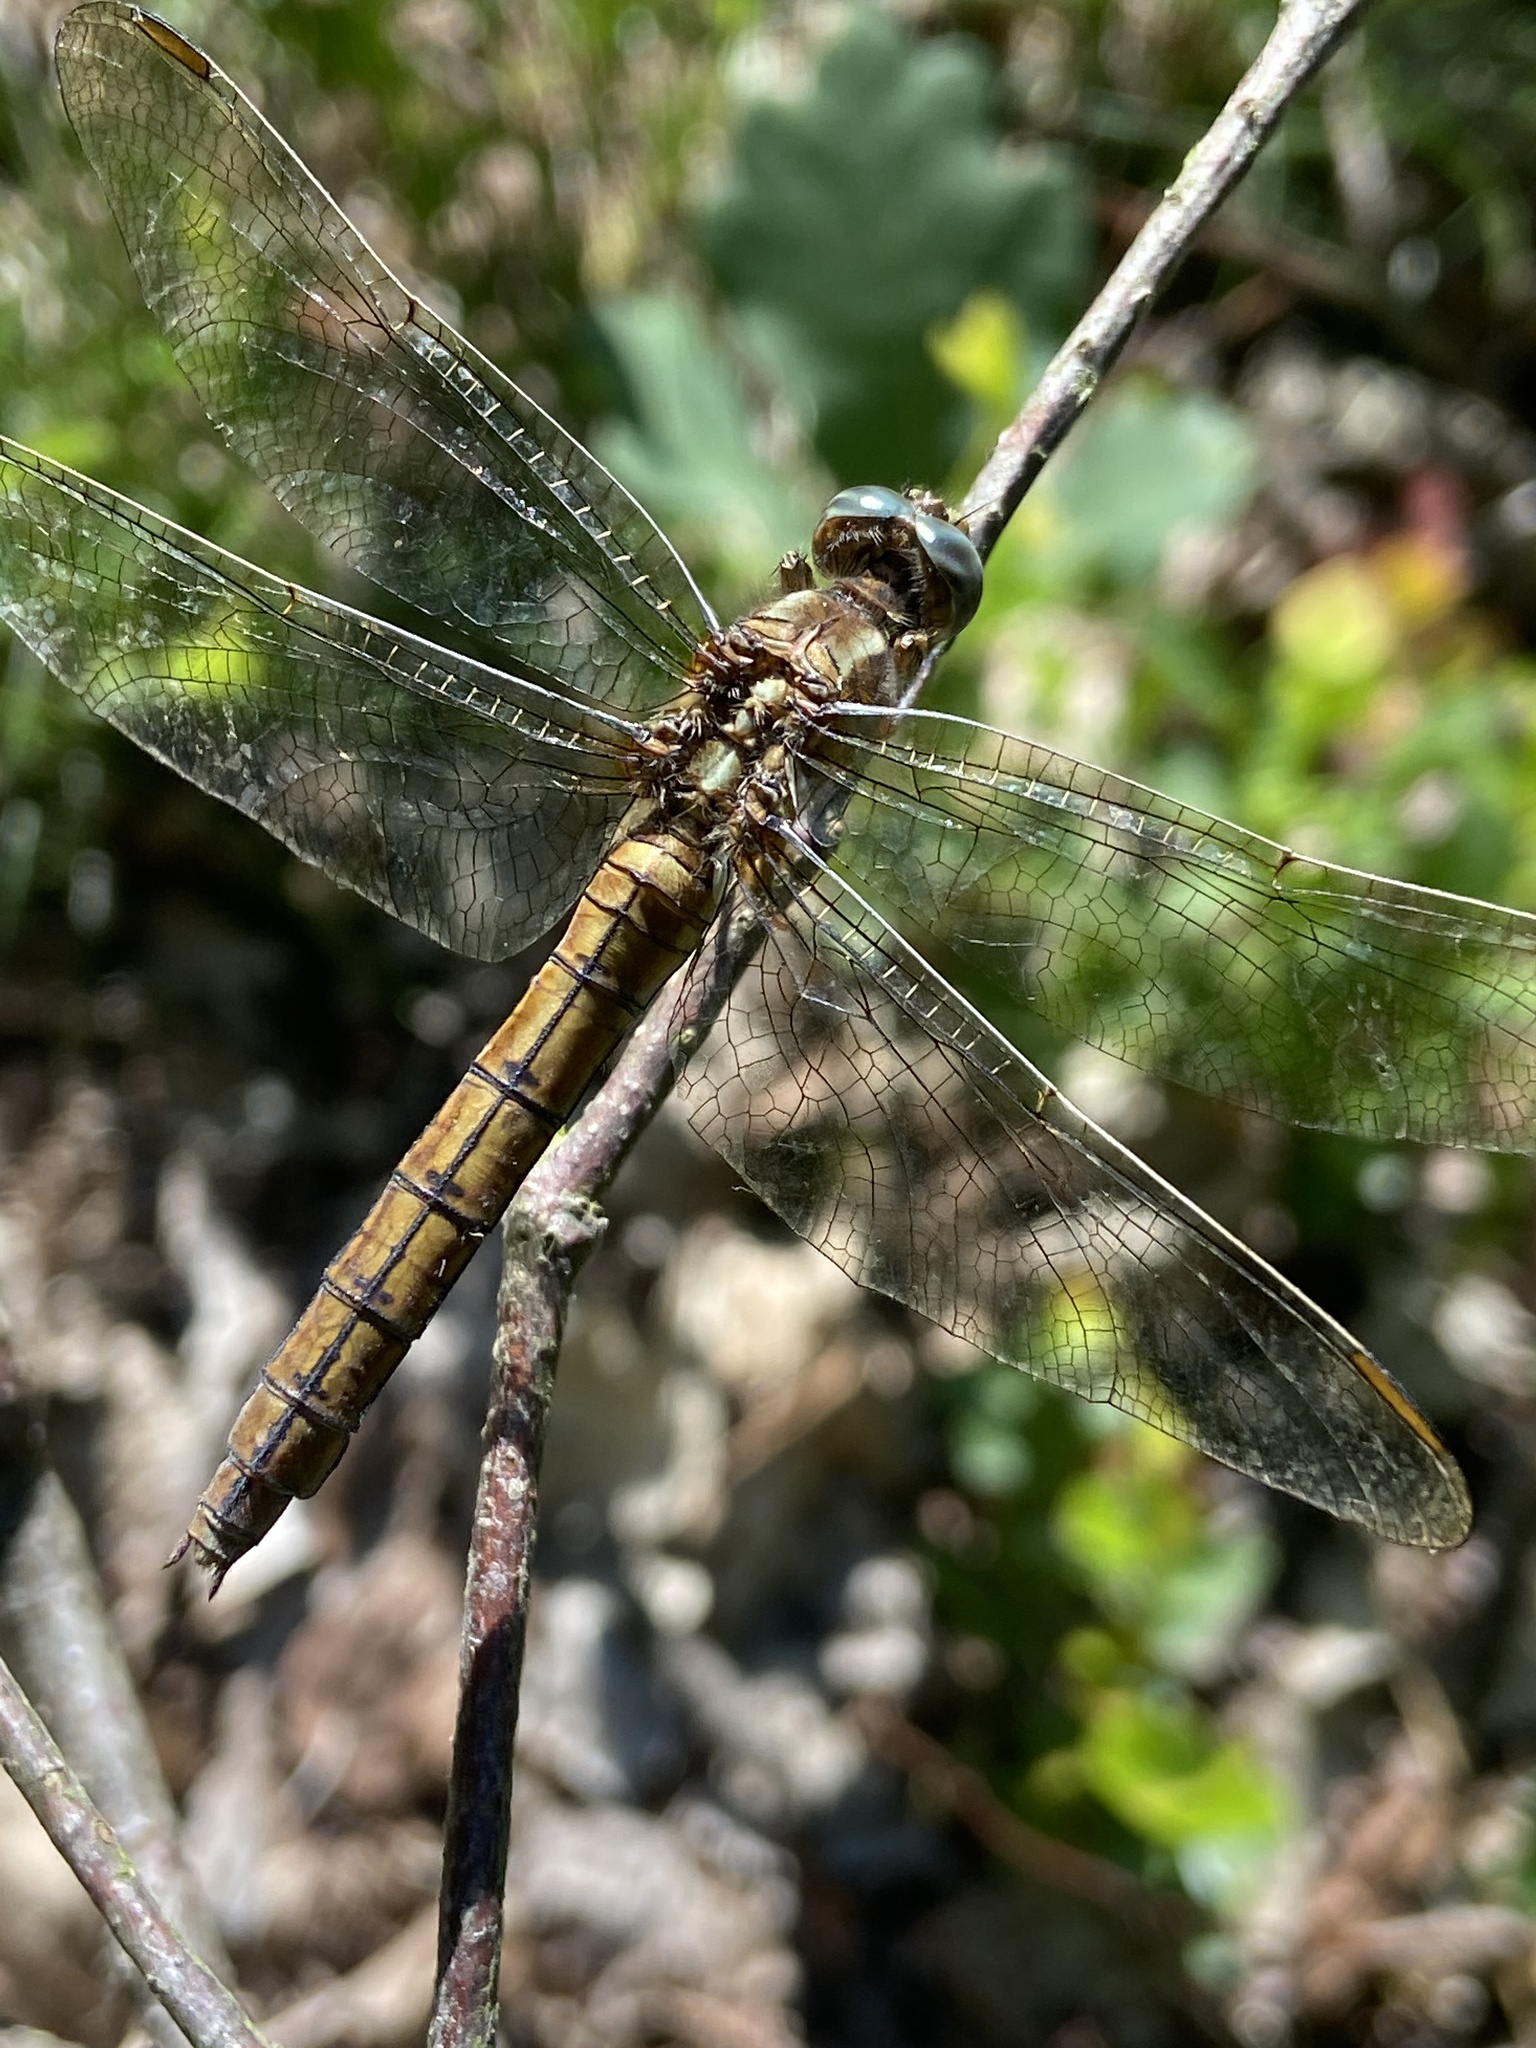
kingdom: Animalia
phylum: Arthropoda
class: Insecta
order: Odonata
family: Libellulidae
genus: Orthetrum
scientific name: Orthetrum coerulescens
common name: Keeled skimmer
